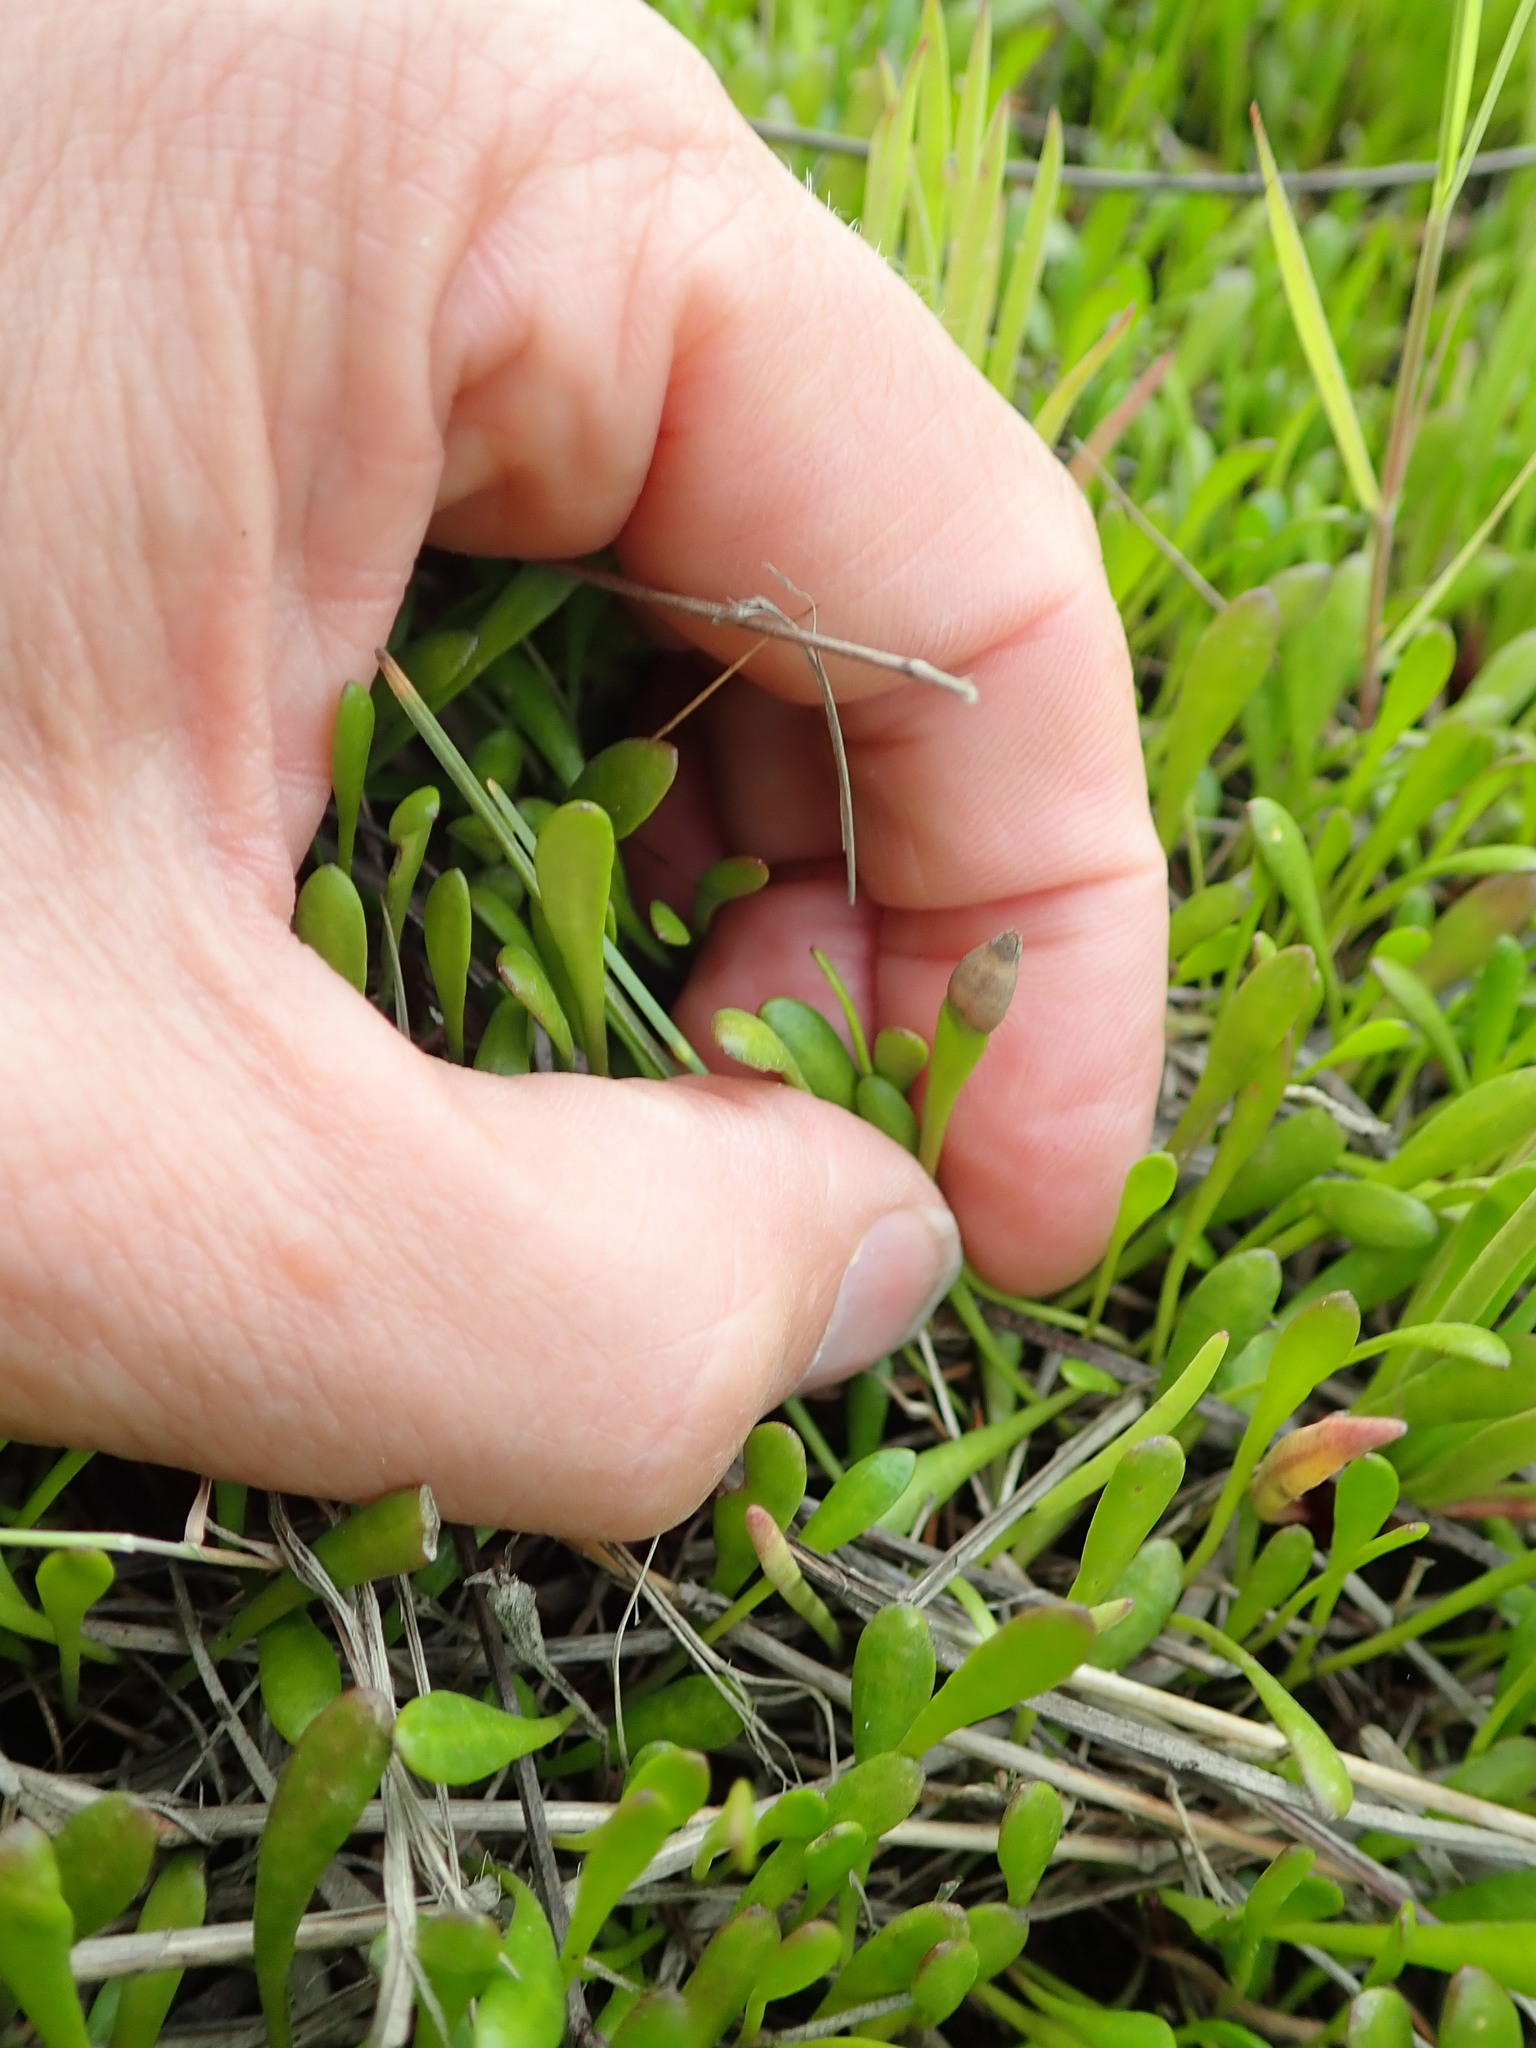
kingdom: Plantae
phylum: Tracheophyta
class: Magnoliopsida
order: Asterales
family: Goodeniaceae
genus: Goodenia
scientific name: Goodenia radicans
